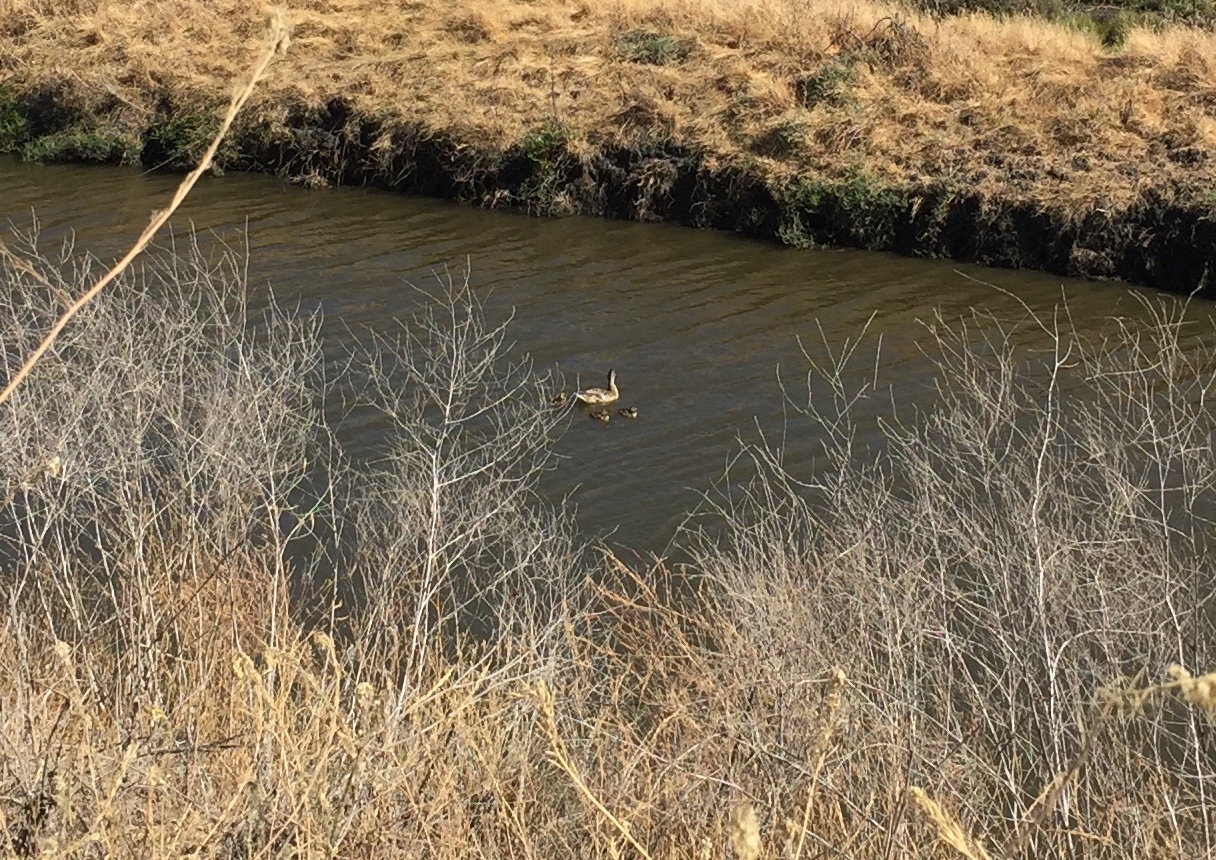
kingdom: Animalia
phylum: Chordata
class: Aves
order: Anseriformes
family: Anatidae
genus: Anas
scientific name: Anas platyrhynchos
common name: Mallard
